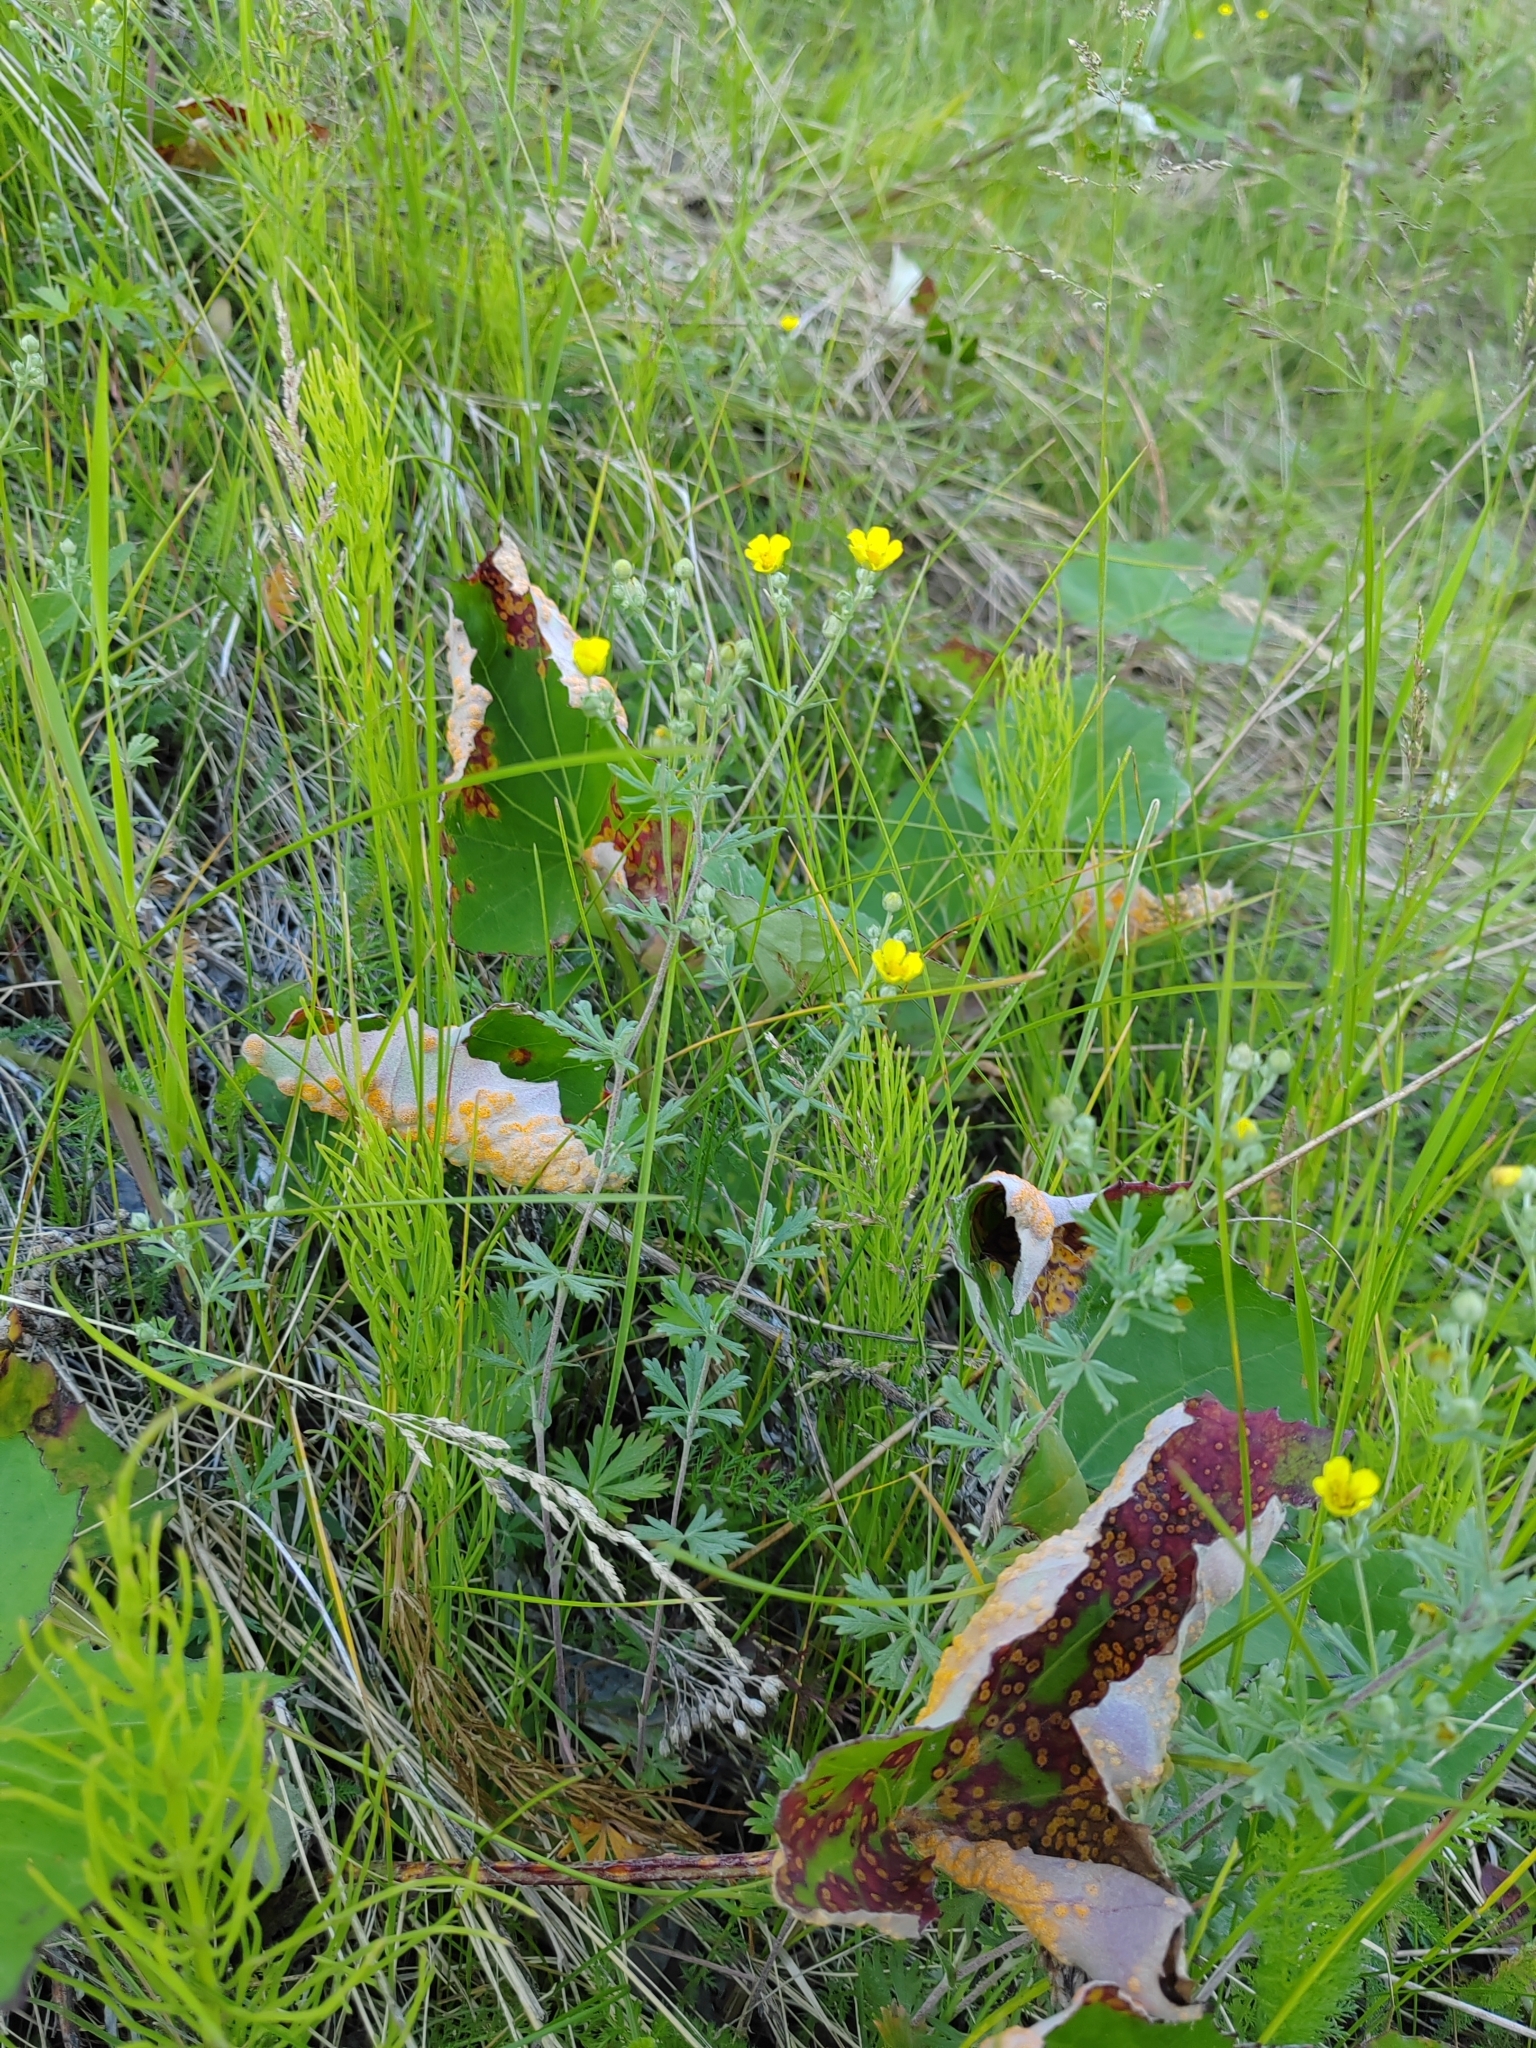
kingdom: Plantae
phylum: Tracheophyta
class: Magnoliopsida
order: Rosales
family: Rosaceae
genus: Potentilla
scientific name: Potentilla argentea
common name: Hoary cinquefoil
